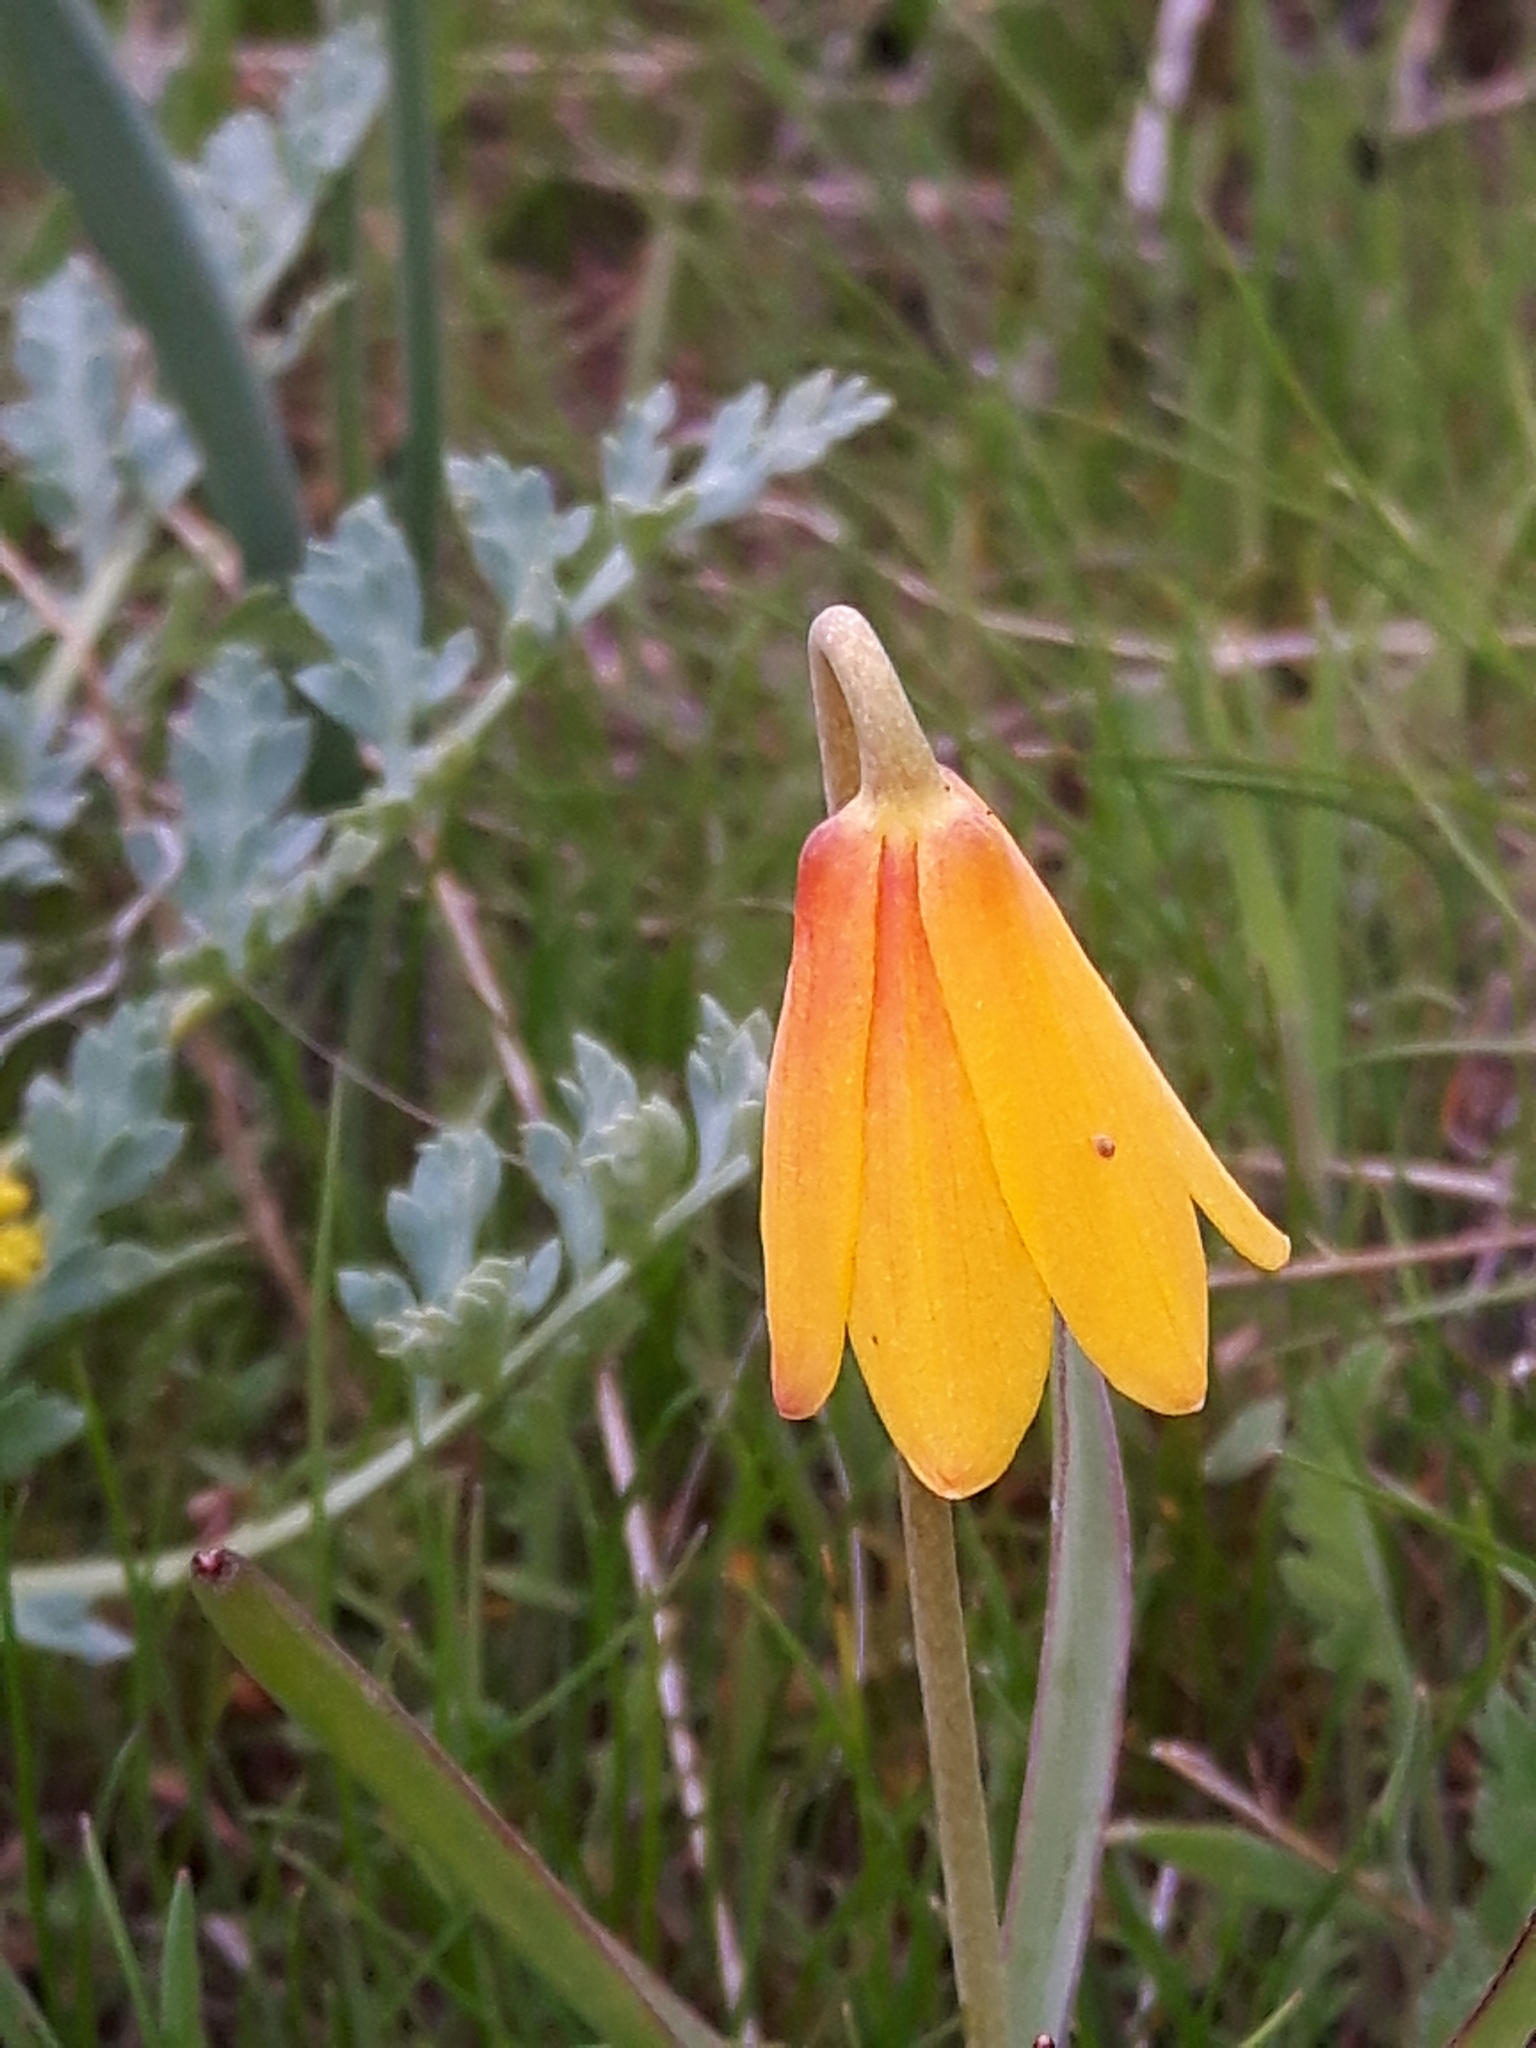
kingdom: Plantae
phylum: Tracheophyta
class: Liliopsida
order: Liliales
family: Liliaceae
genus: Fritillaria
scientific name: Fritillaria pudica
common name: Yellow fritillary
